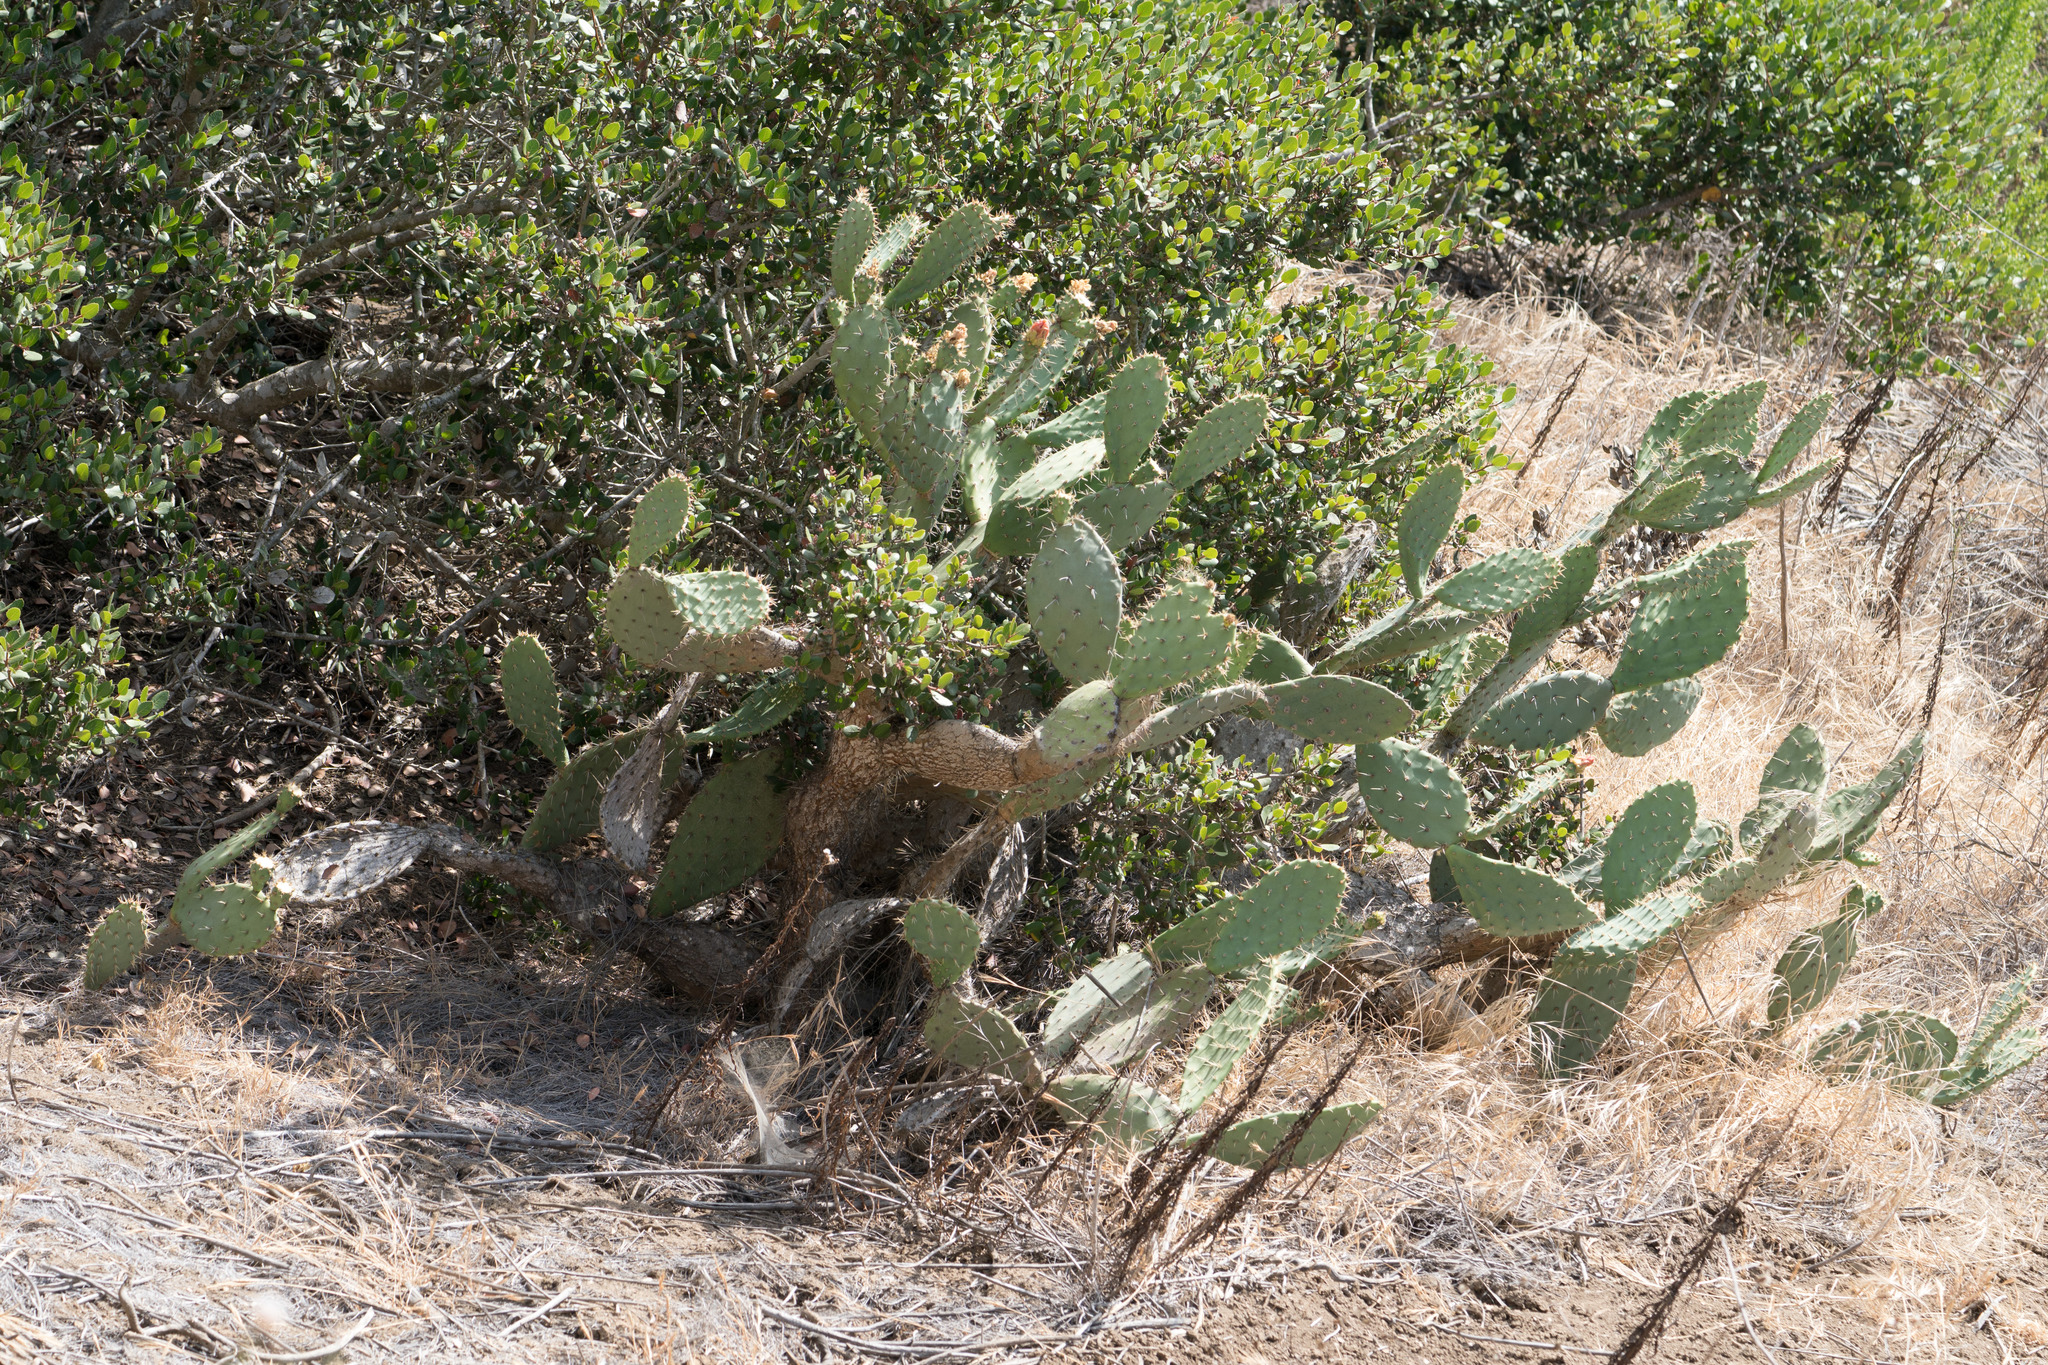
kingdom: Plantae
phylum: Tracheophyta
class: Magnoliopsida
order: Caryophyllales
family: Cactaceae
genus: Opuntia
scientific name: Opuntia
